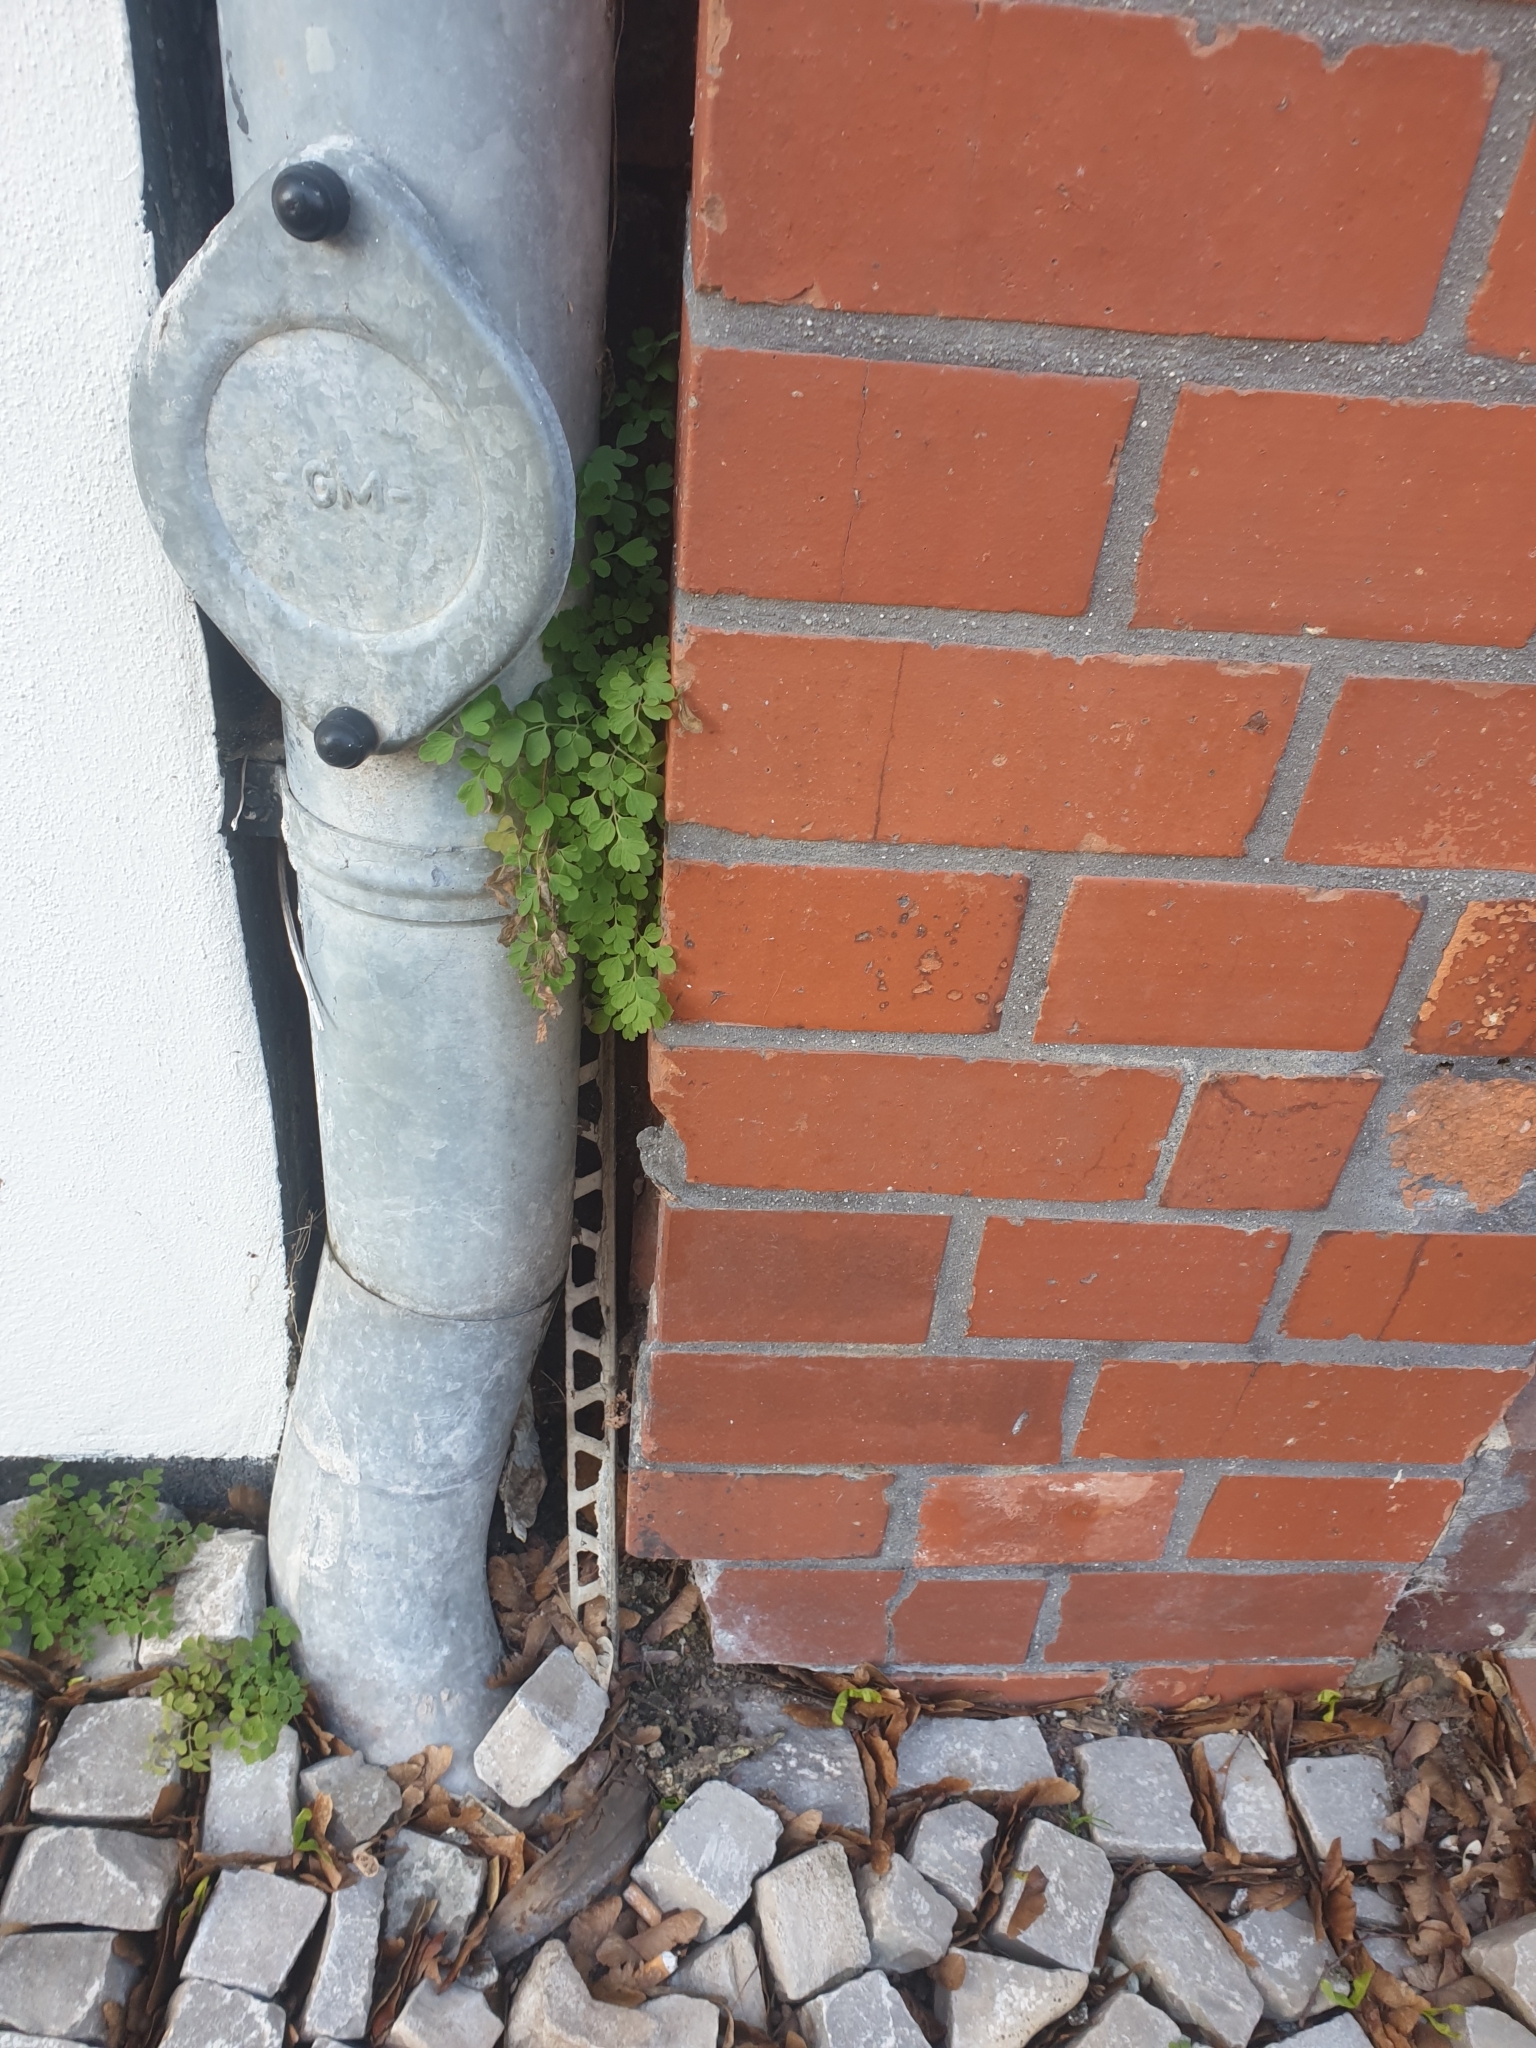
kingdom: Plantae
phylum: Tracheophyta
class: Magnoliopsida
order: Ranunculales
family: Papaveraceae
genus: Pseudofumaria
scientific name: Pseudofumaria lutea
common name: Yellow corydalis
